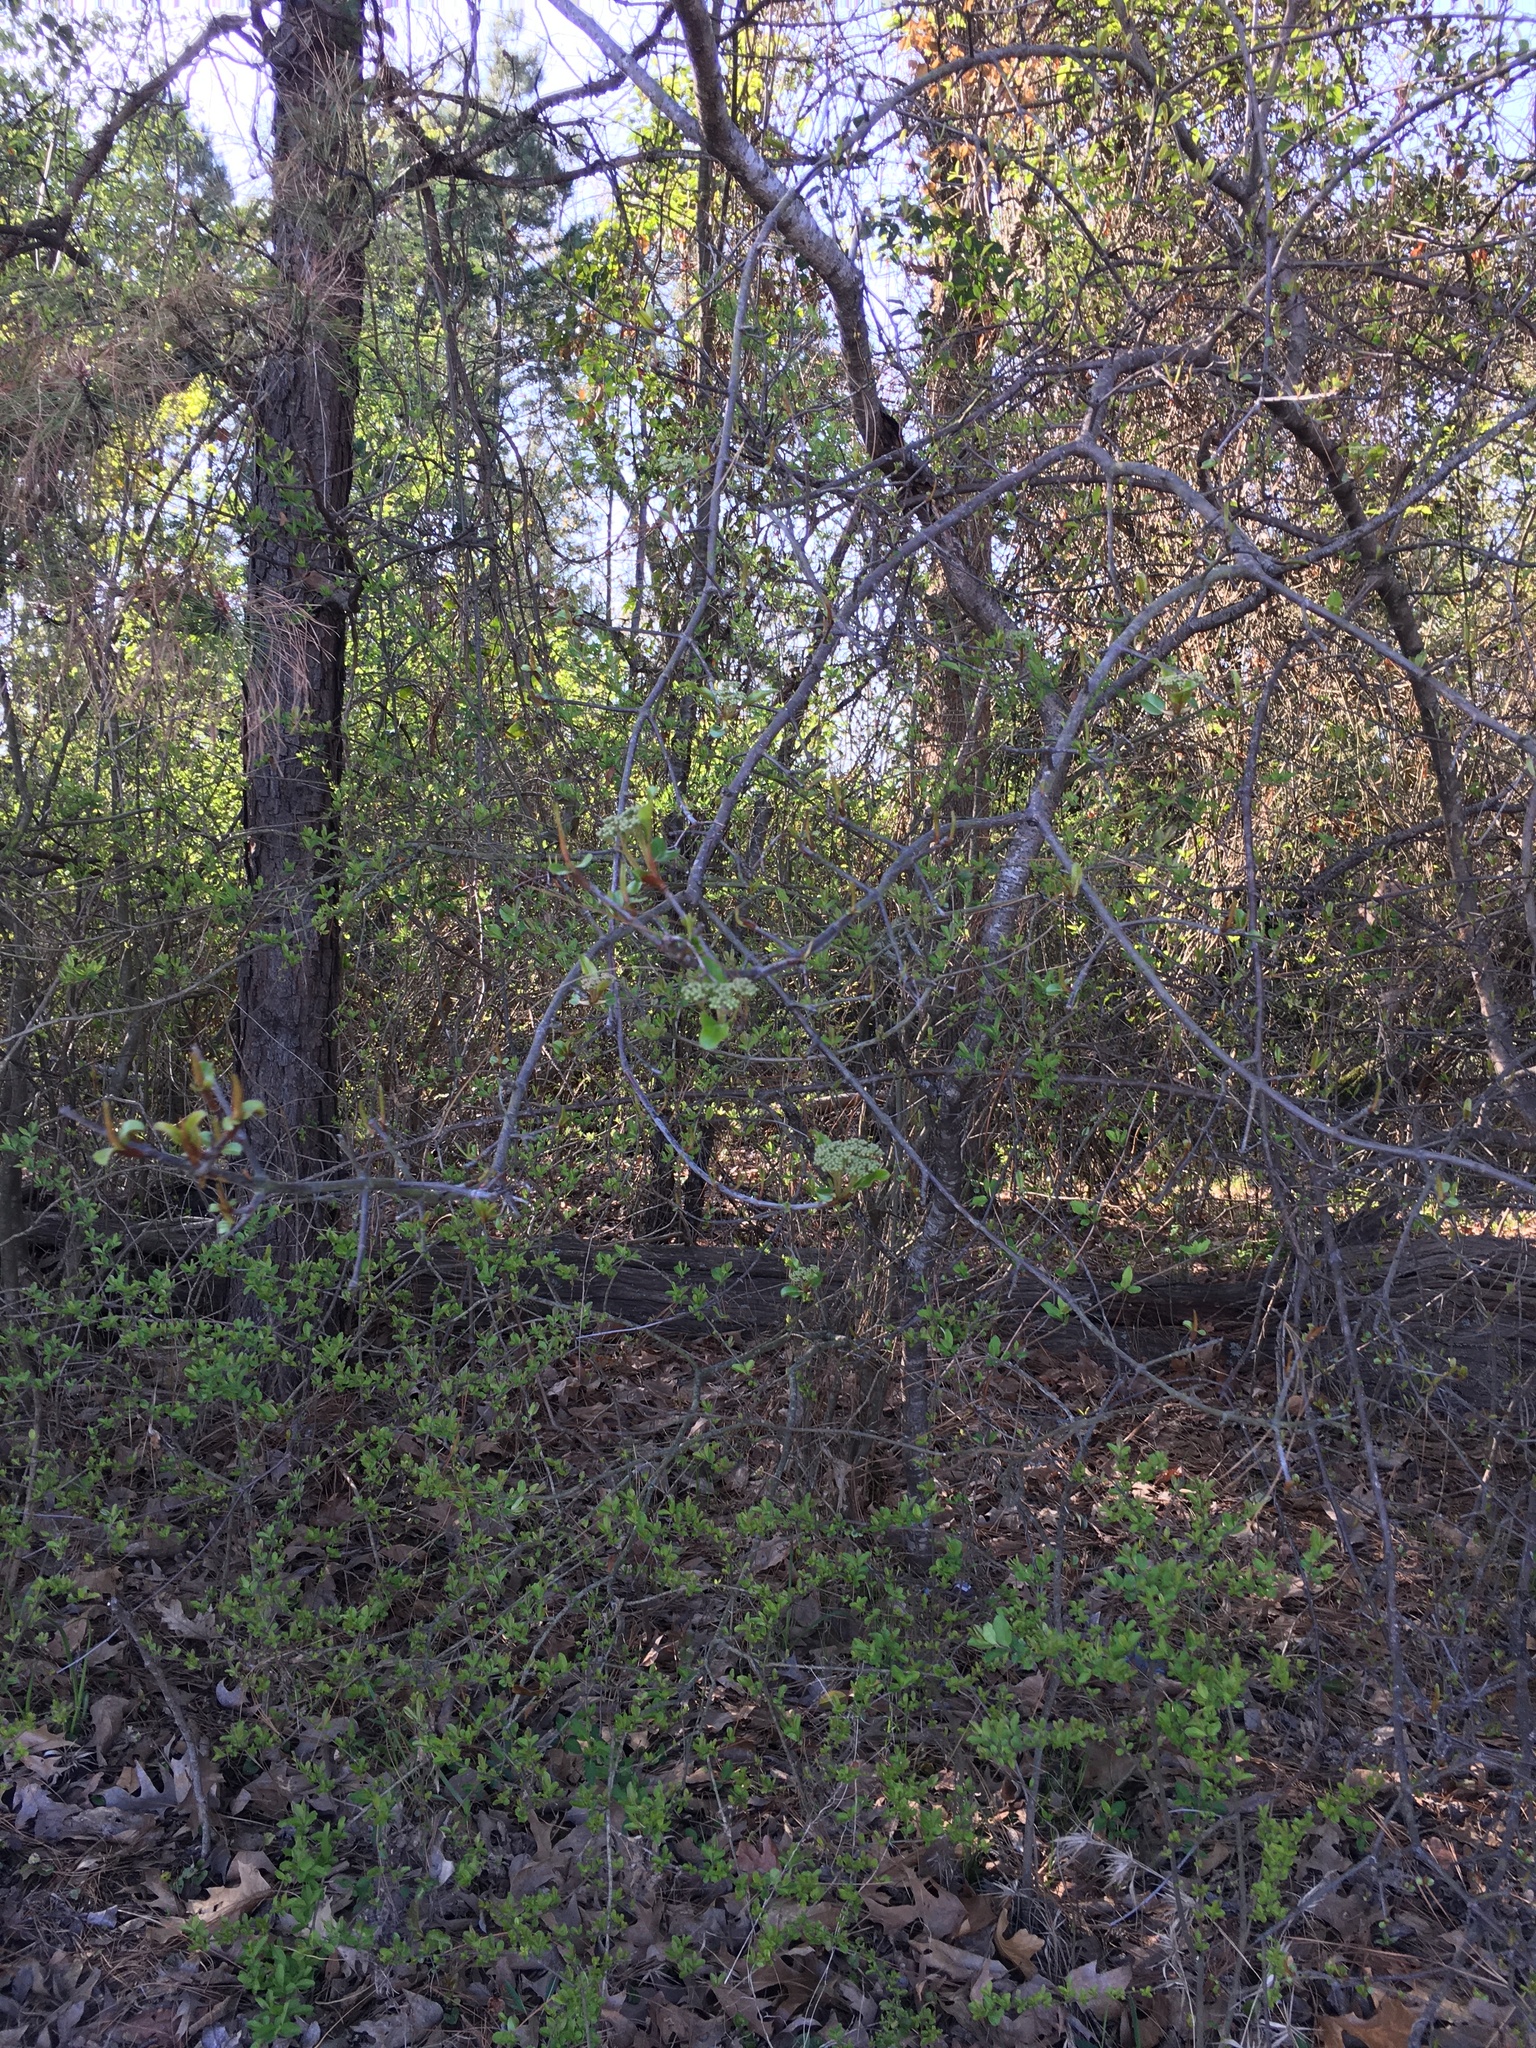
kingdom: Plantae
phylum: Tracheophyta
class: Magnoliopsida
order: Dipsacales
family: Viburnaceae
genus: Viburnum
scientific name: Viburnum rufidulum
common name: Blue haw
